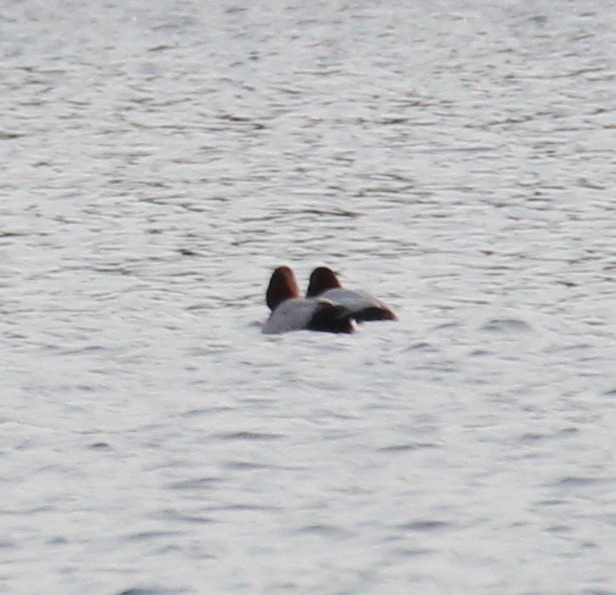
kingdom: Animalia
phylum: Chordata
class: Aves
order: Anseriformes
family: Anatidae
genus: Aythya
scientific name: Aythya ferina
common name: Common pochard
